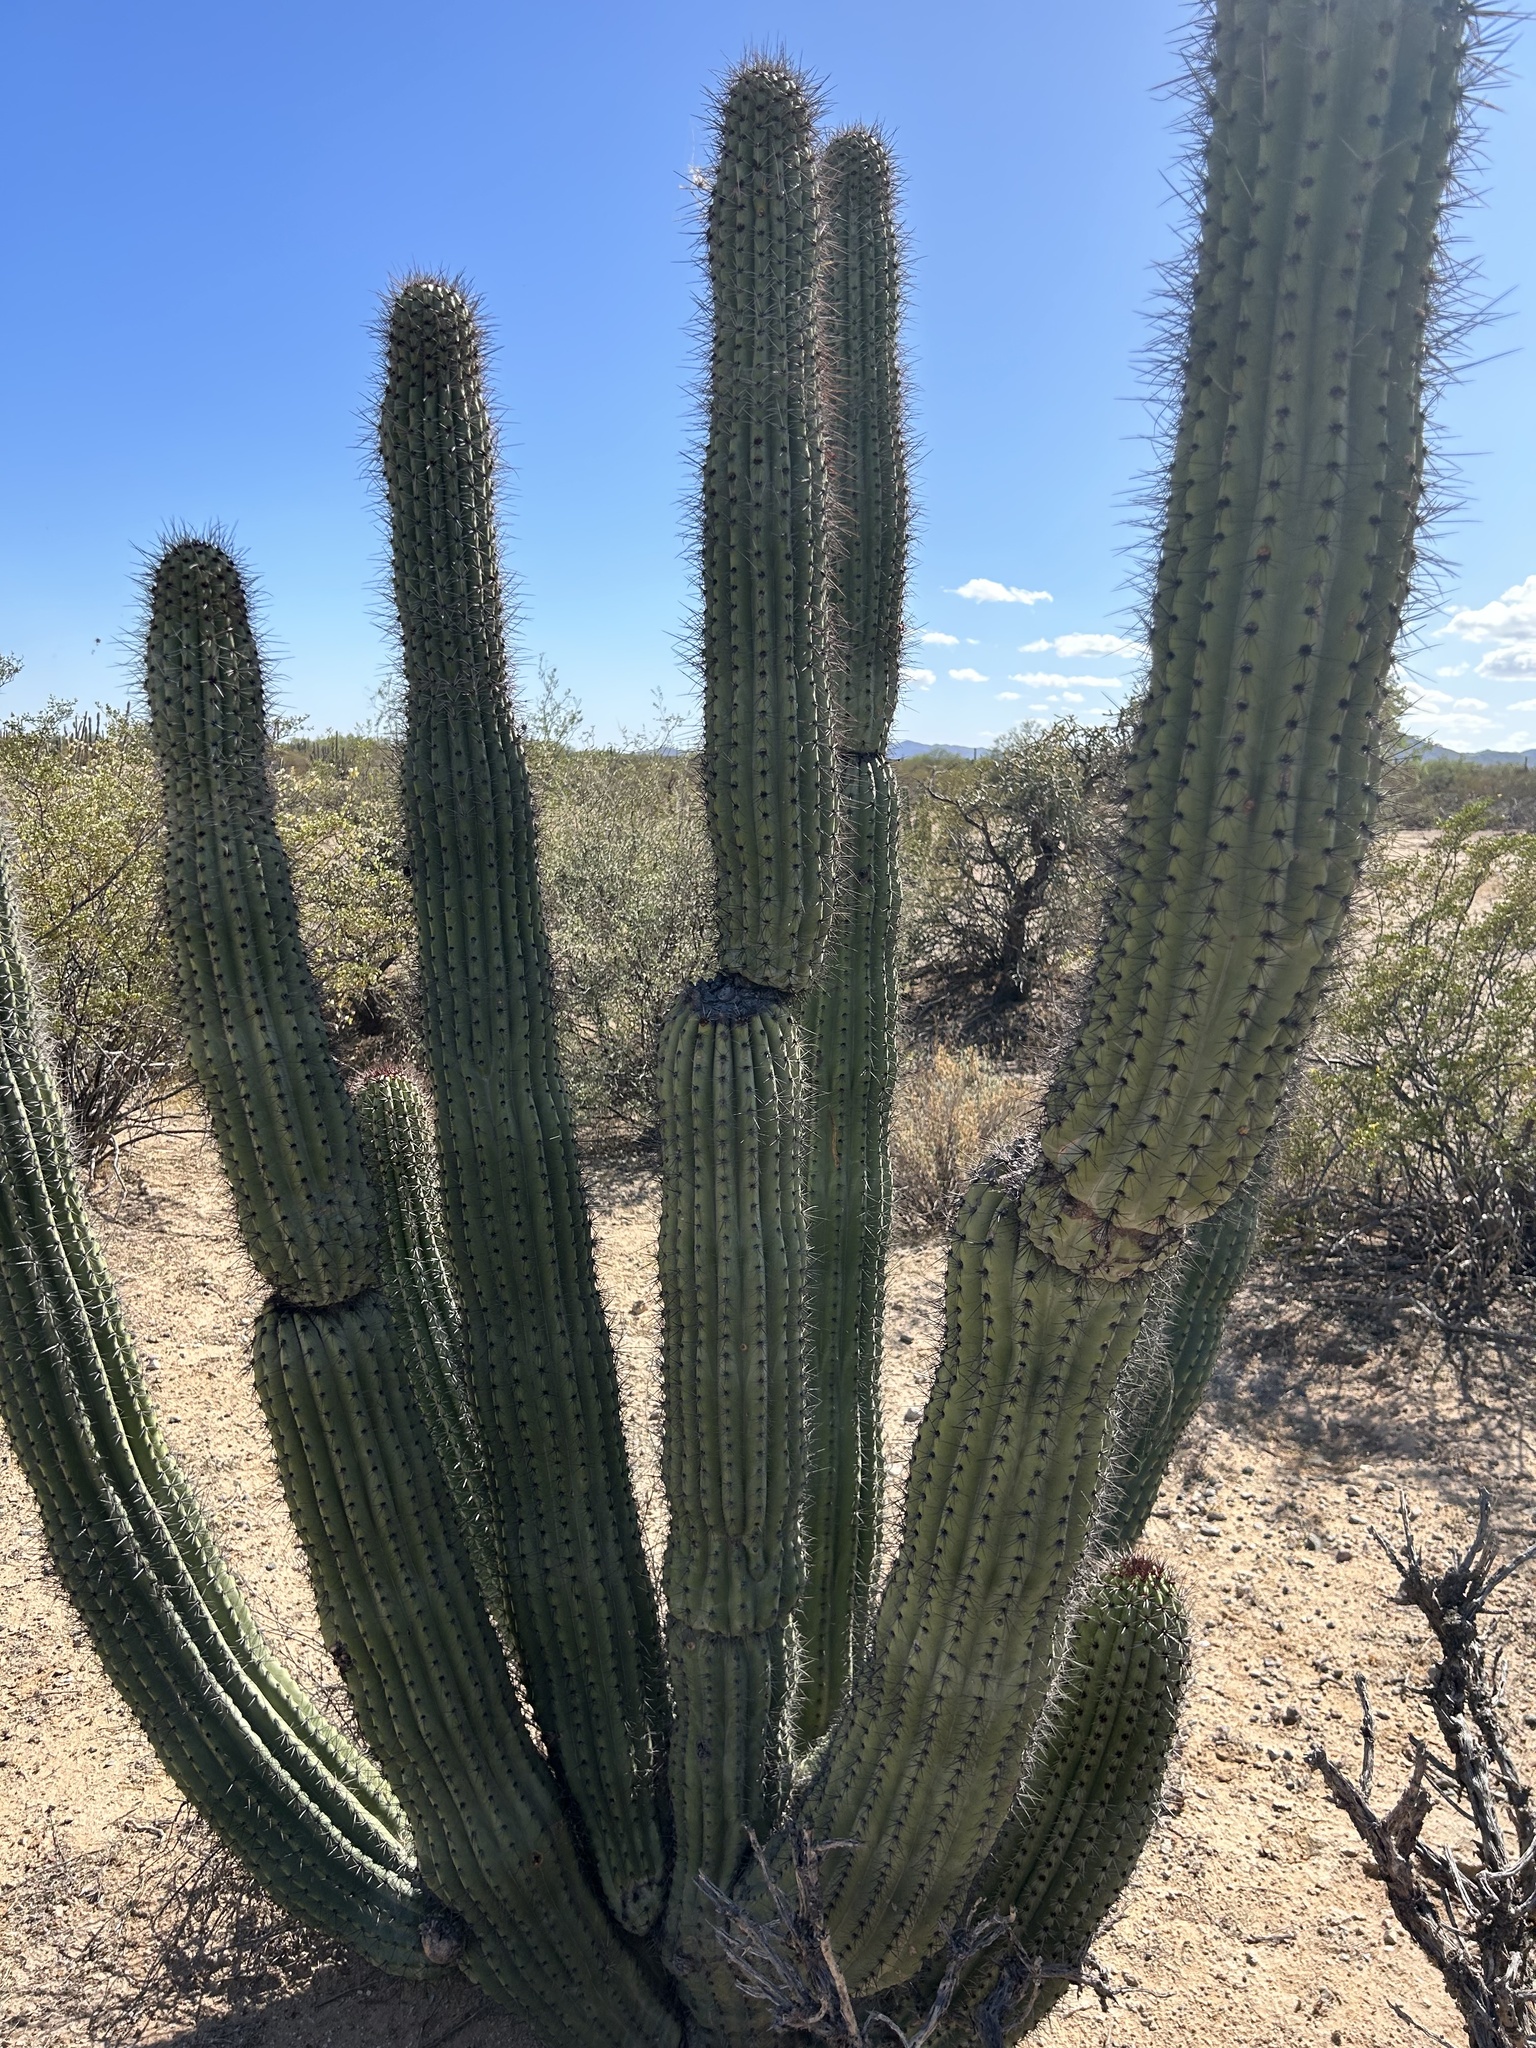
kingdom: Plantae
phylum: Tracheophyta
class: Magnoliopsida
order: Caryophyllales
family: Cactaceae
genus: Stenocereus
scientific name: Stenocereus thurberi
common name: Organ pipe cactus
